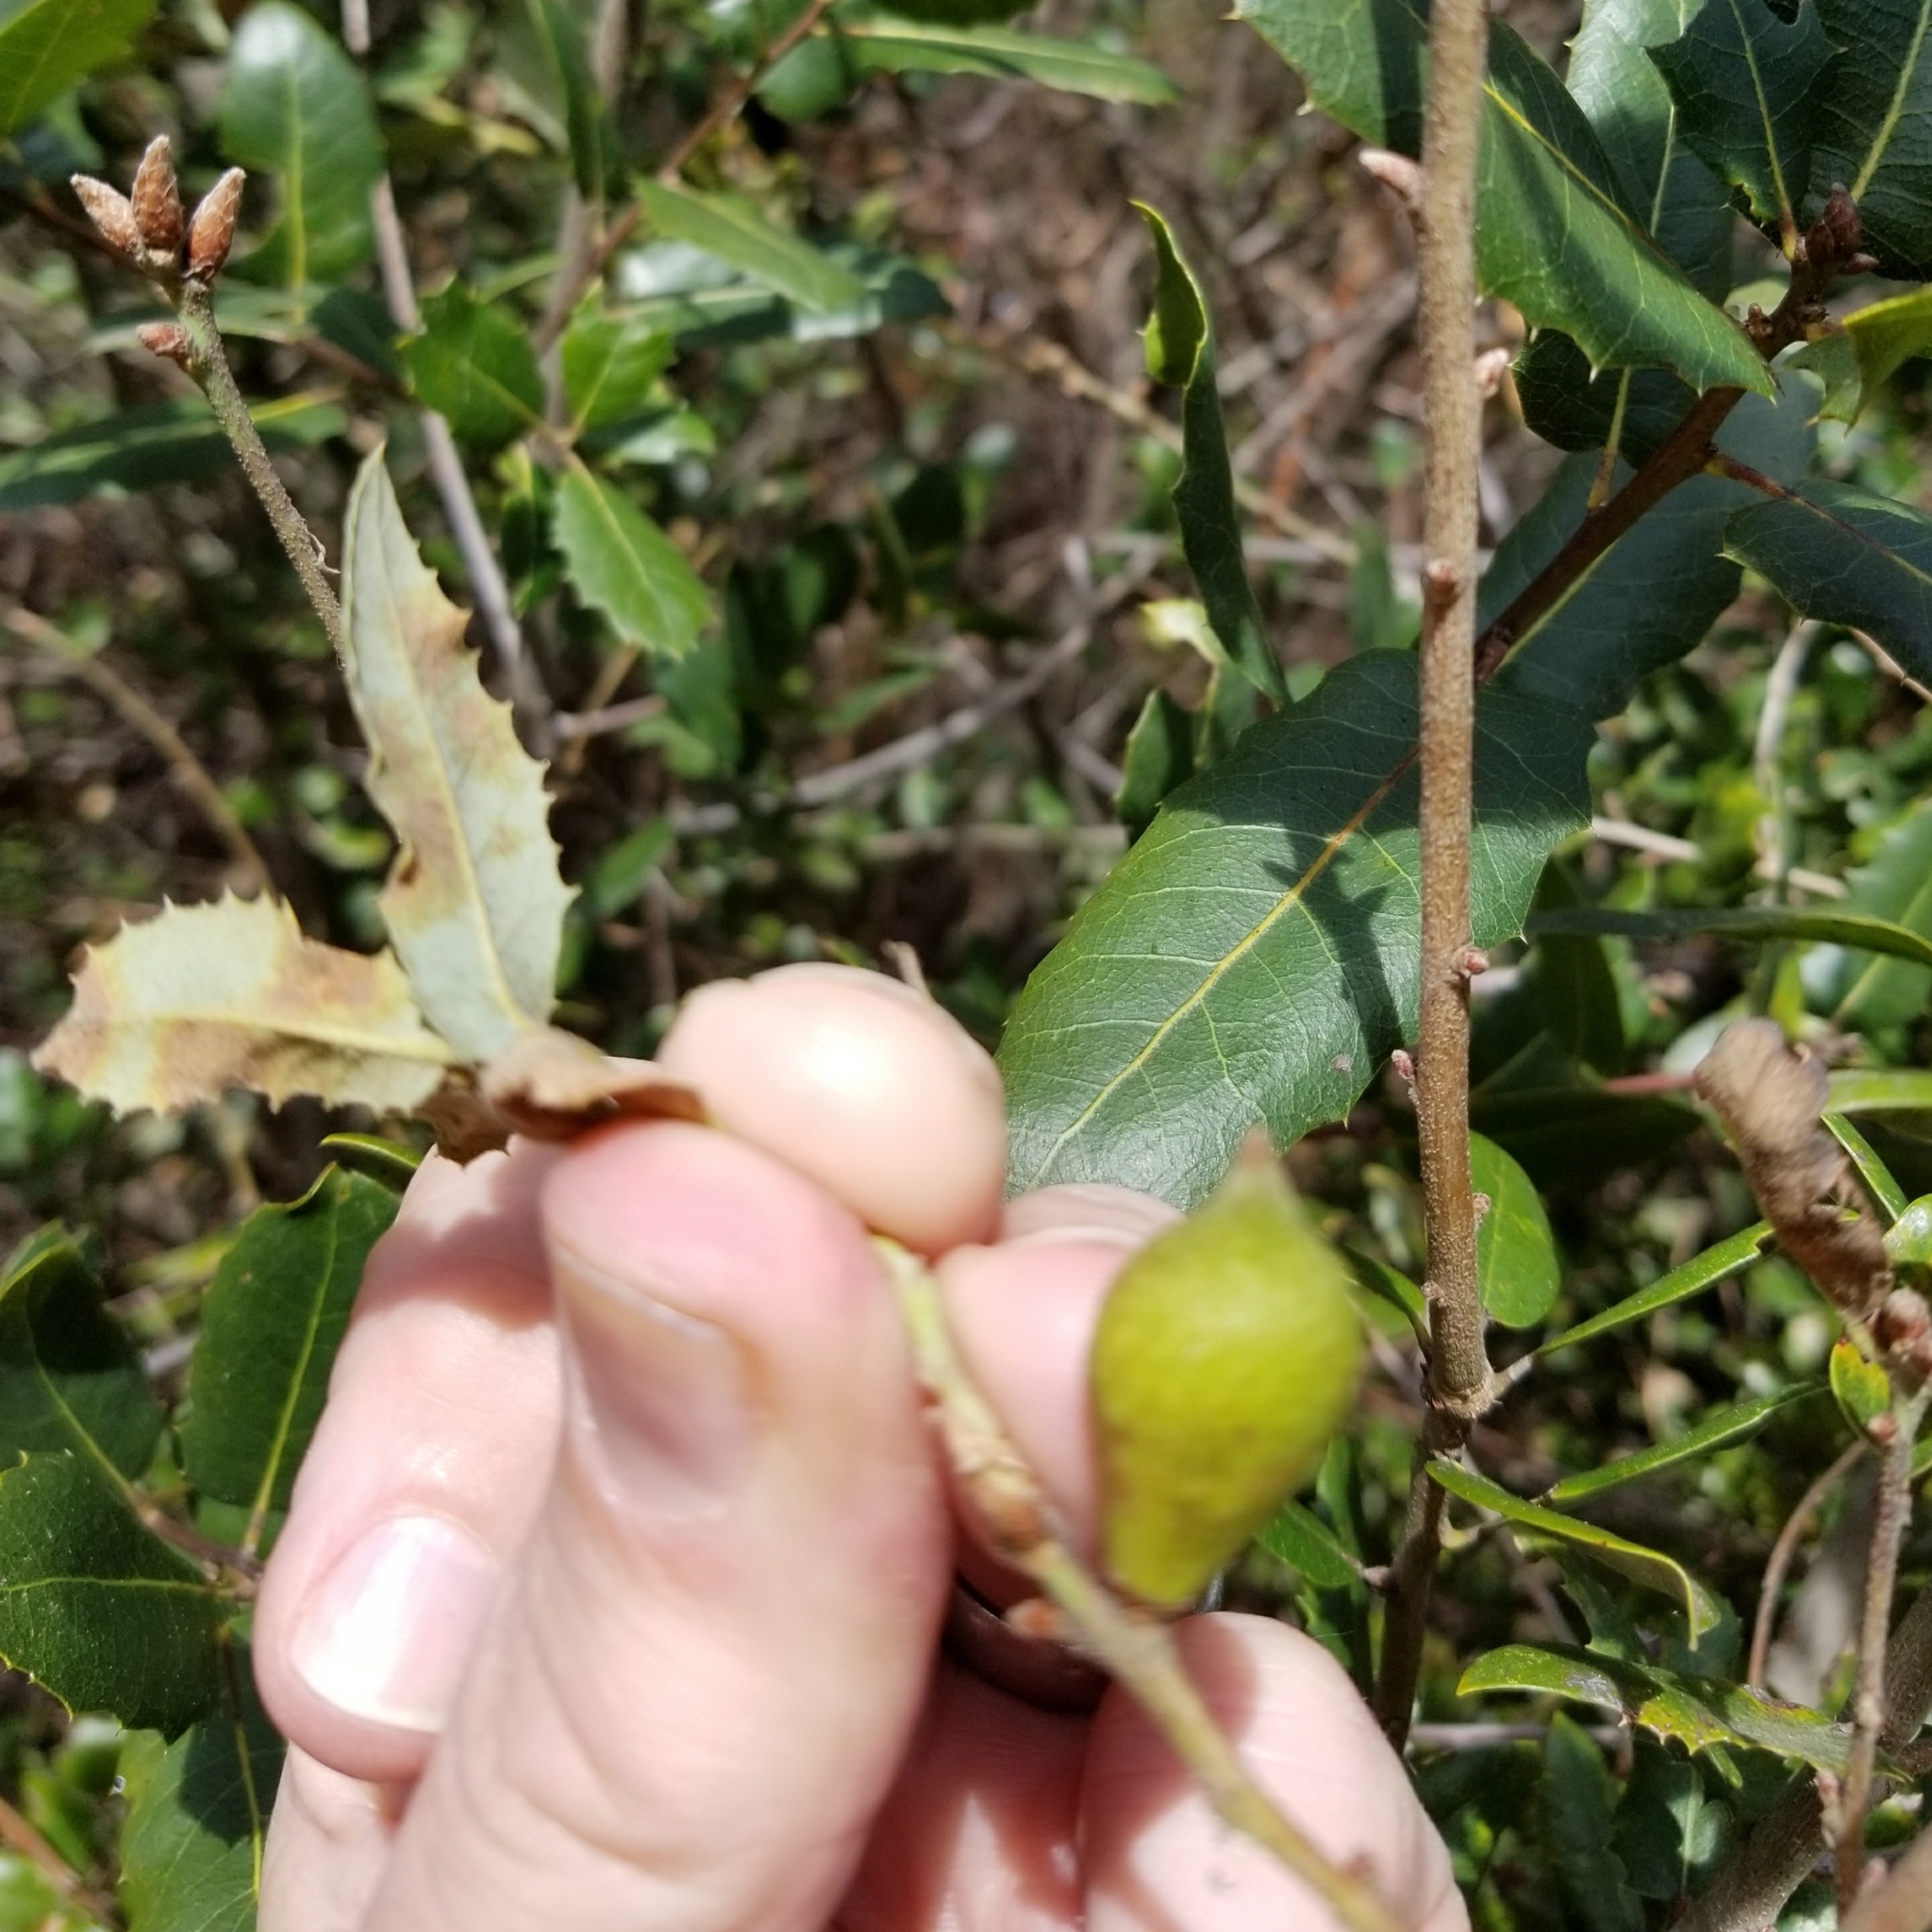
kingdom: Plantae
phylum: Tracheophyta
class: Magnoliopsida
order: Fagales
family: Fagaceae
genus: Quercus
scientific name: Quercus chrysolepis
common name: Canyon live oak
